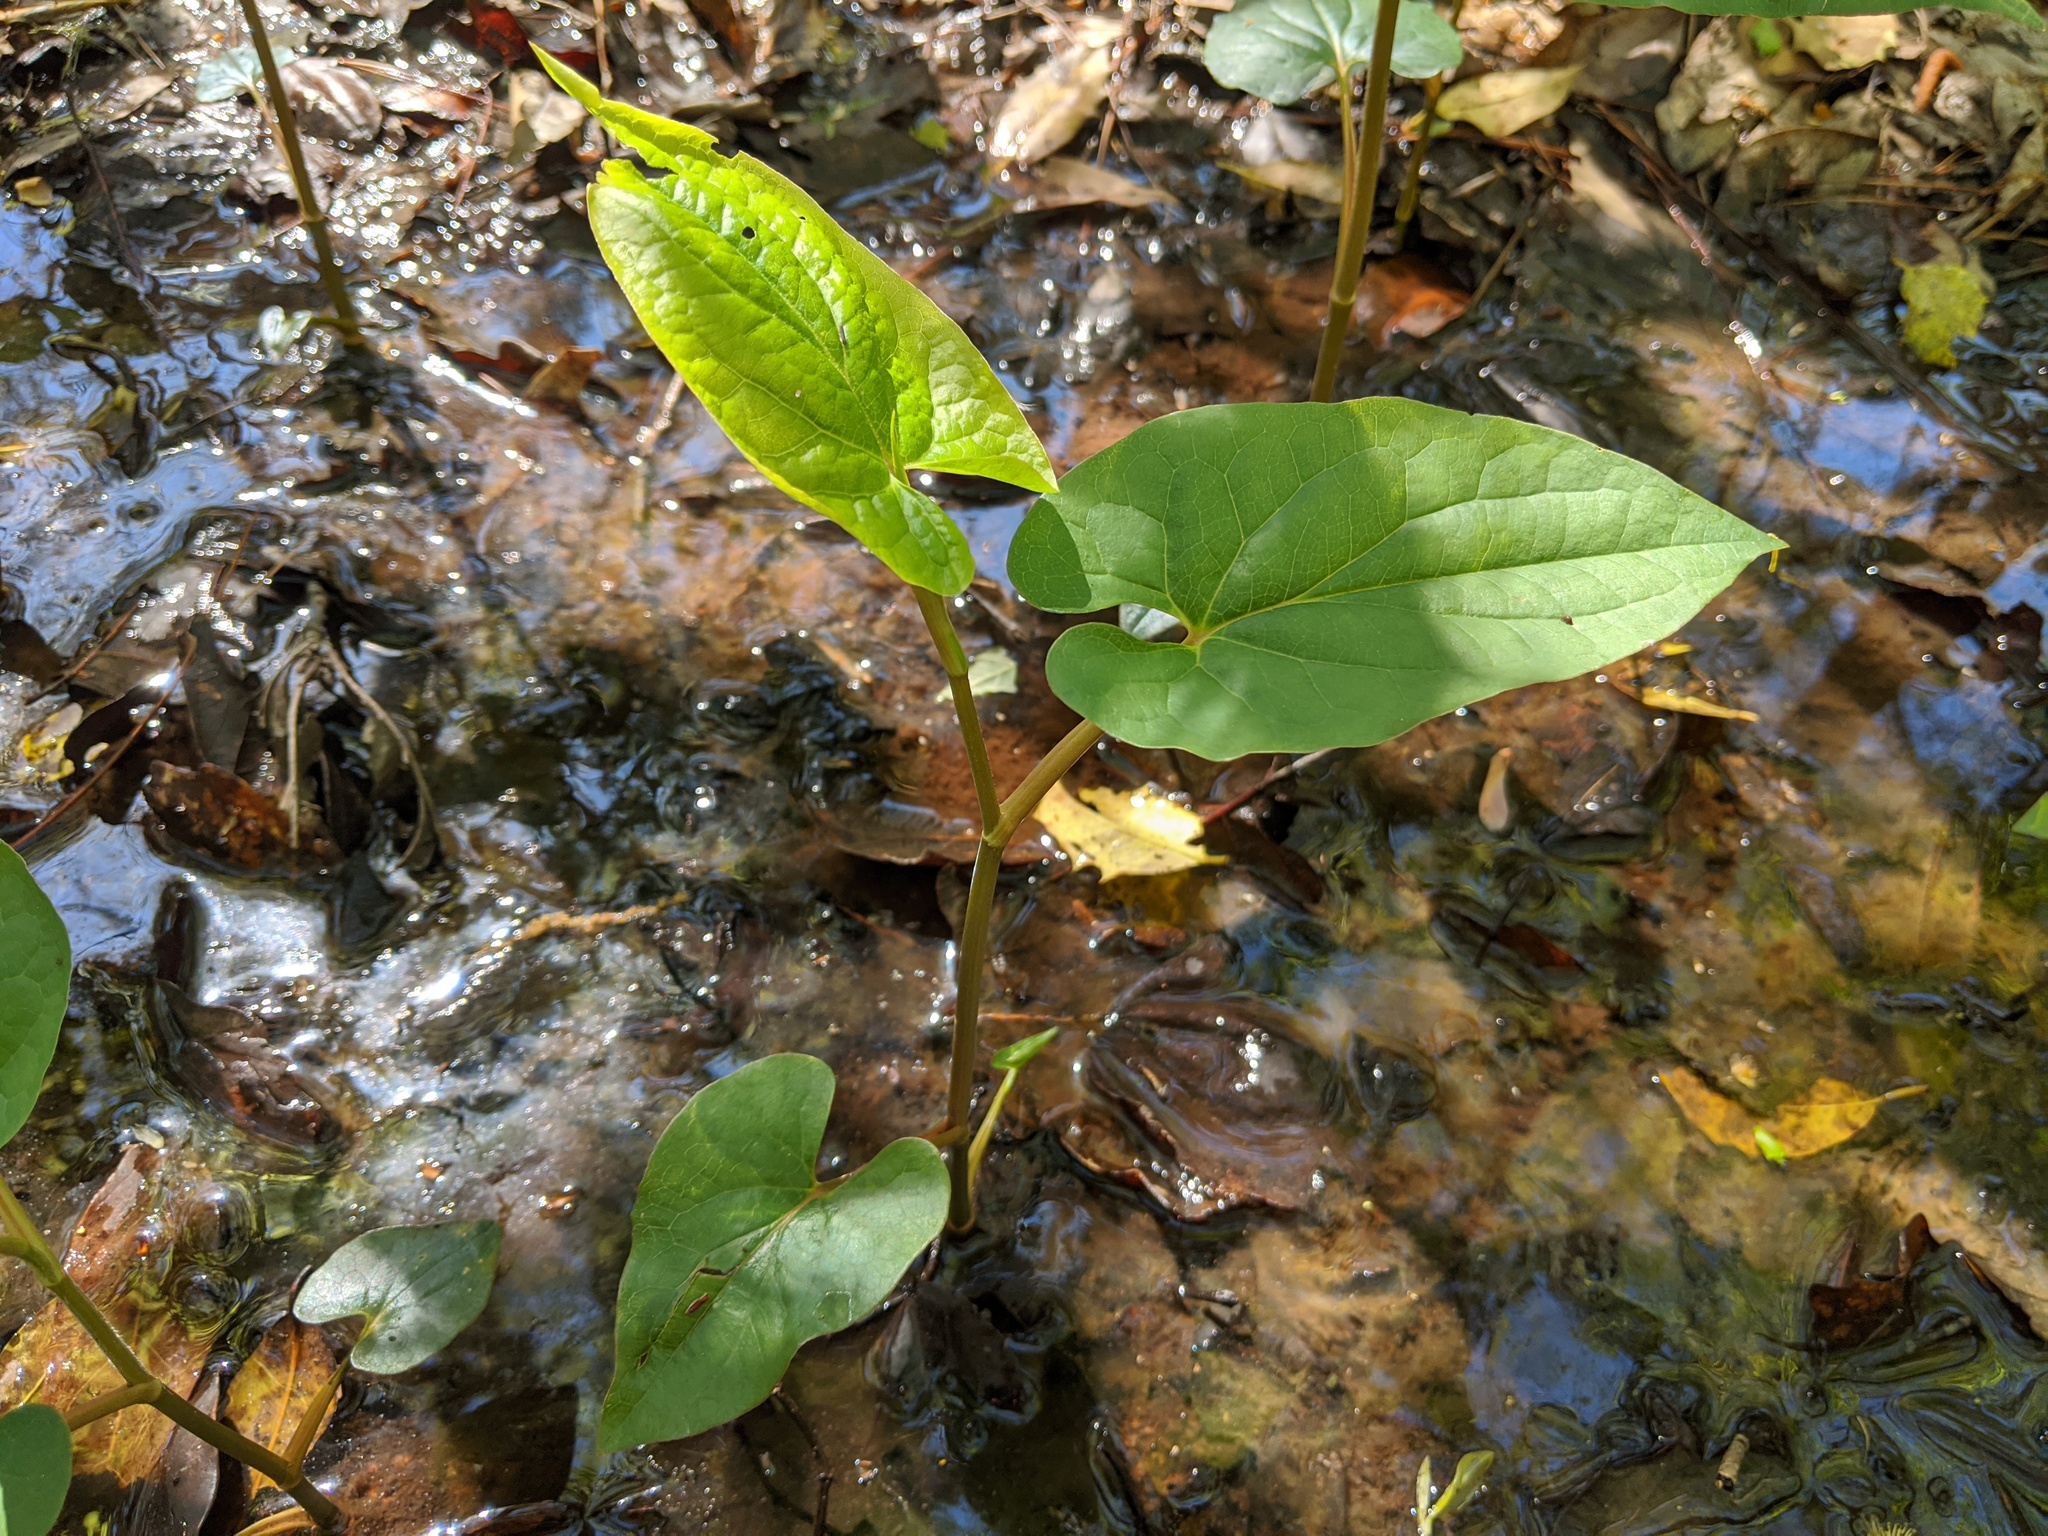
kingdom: Plantae
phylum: Tracheophyta
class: Magnoliopsida
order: Piperales
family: Saururaceae
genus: Saururus
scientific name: Saururus cernuus
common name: Lizard's-tail
